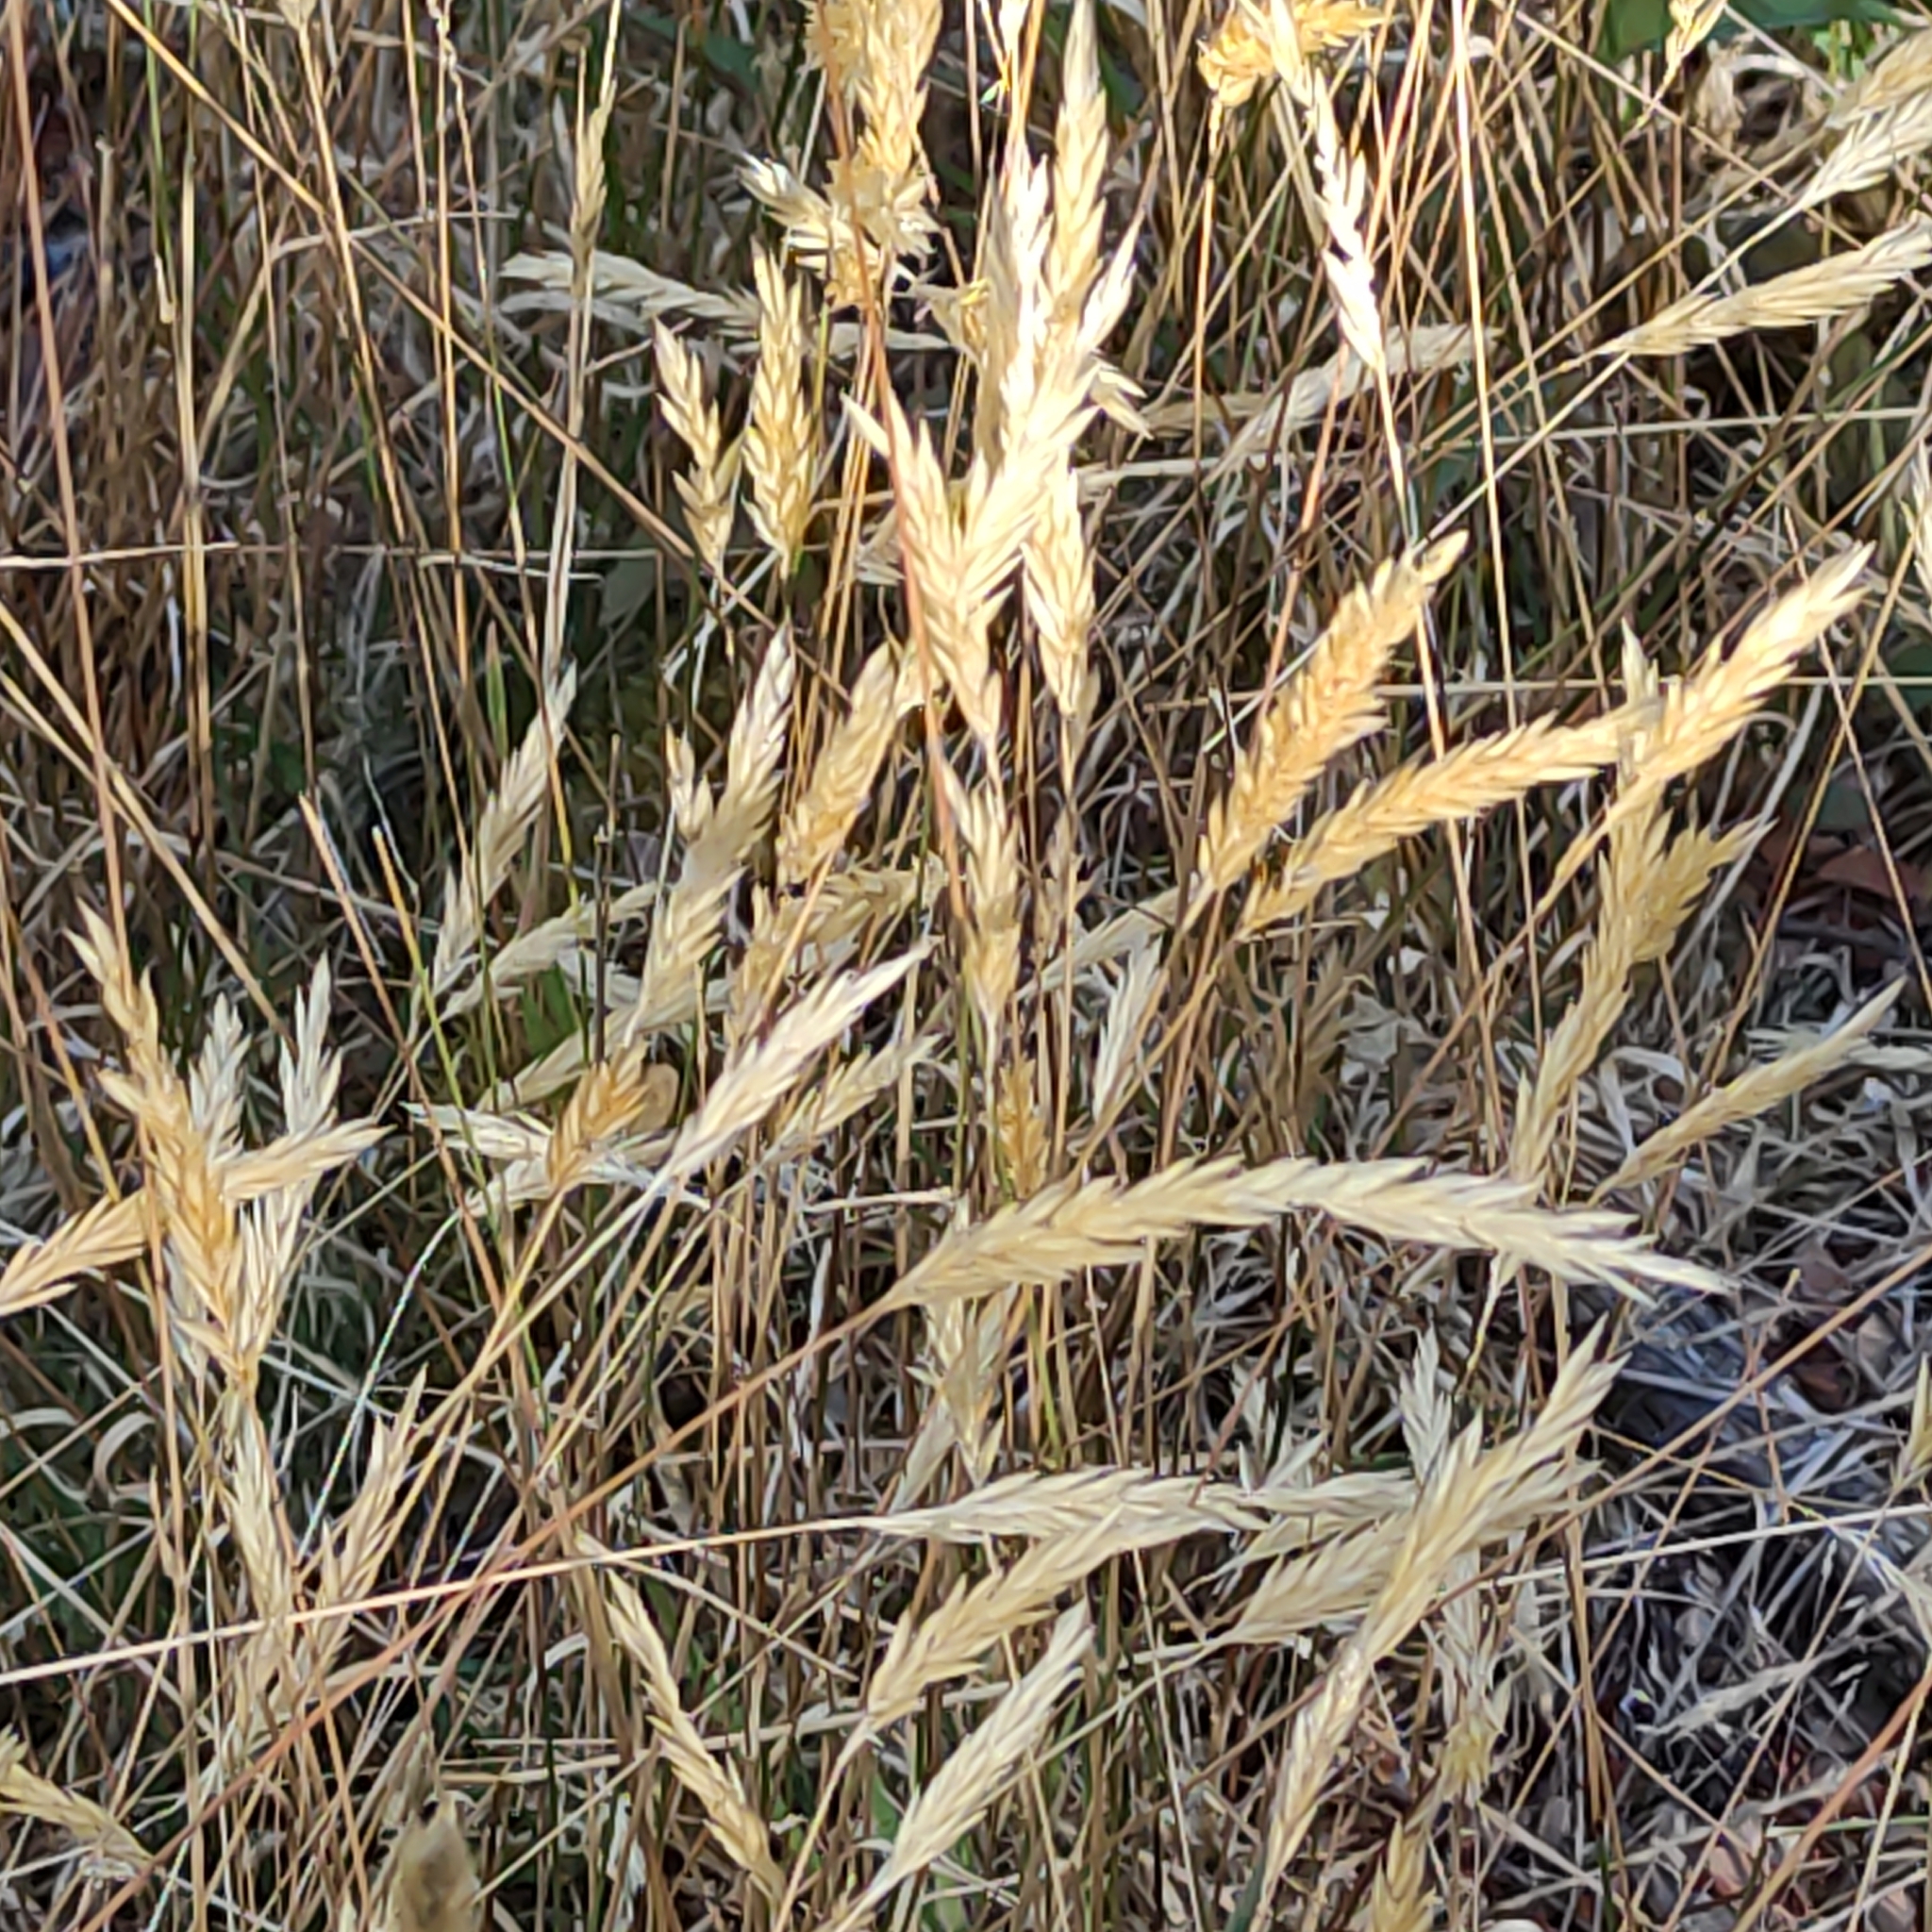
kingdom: Plantae
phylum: Tracheophyta
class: Liliopsida
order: Poales
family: Poaceae
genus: Anthoxanthum
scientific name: Anthoxanthum odoratum
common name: Sweet vernalgrass
